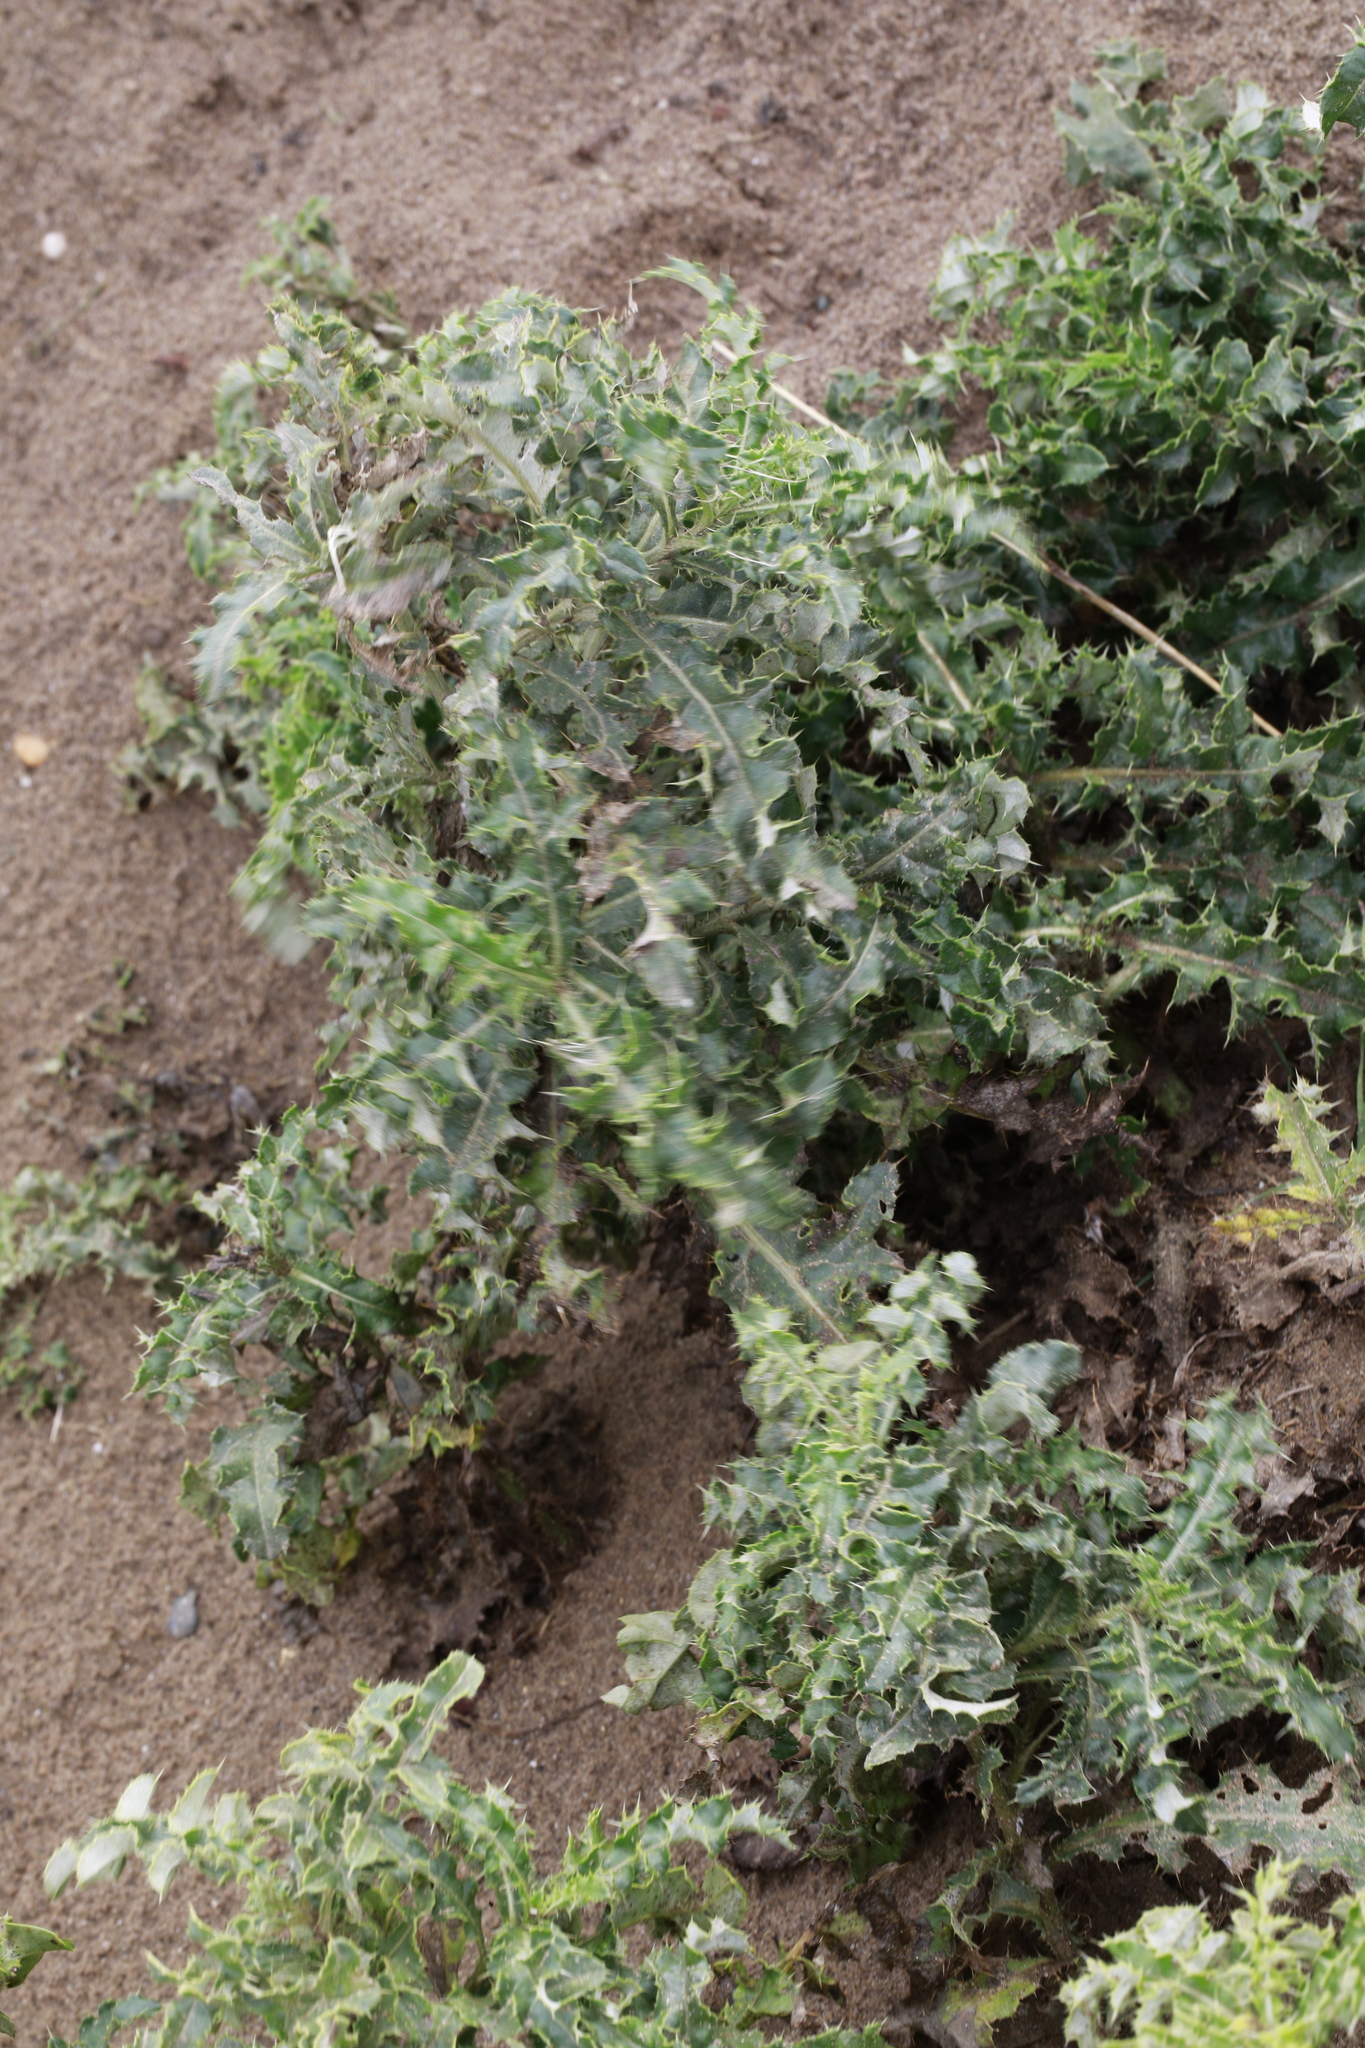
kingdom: Plantae
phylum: Tracheophyta
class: Magnoliopsida
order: Asterales
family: Asteraceae
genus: Cirsium
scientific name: Cirsium arvense
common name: Creeping thistle
